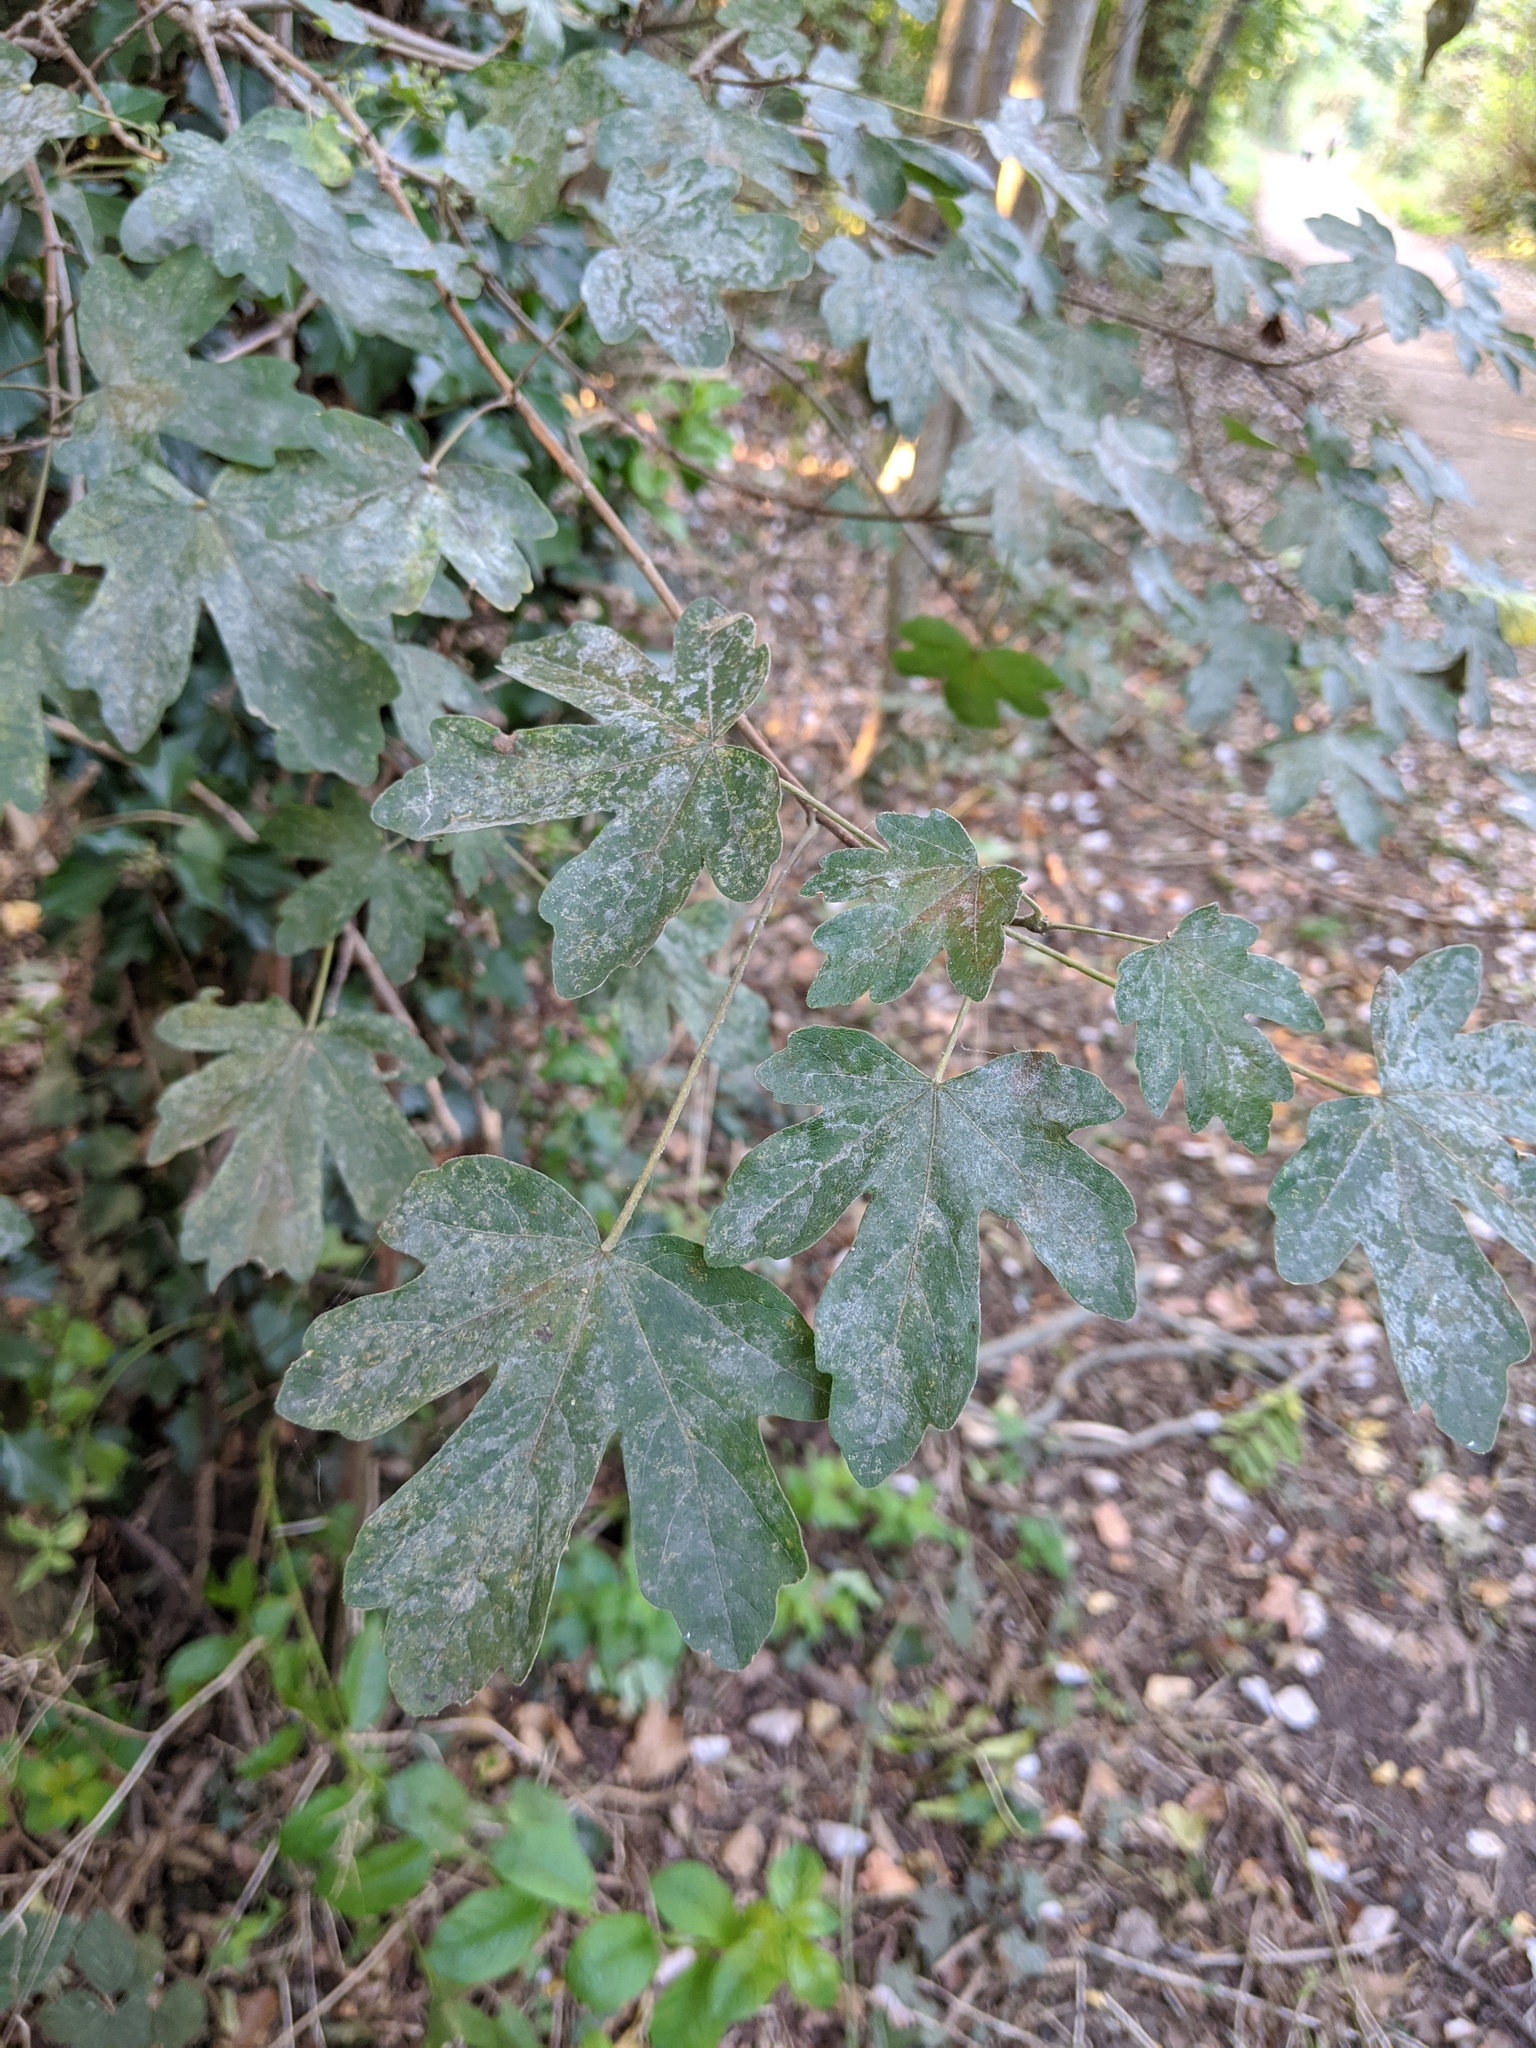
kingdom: Plantae
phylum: Tracheophyta
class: Magnoliopsida
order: Sapindales
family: Sapindaceae
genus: Acer
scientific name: Acer campestre
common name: Field maple
